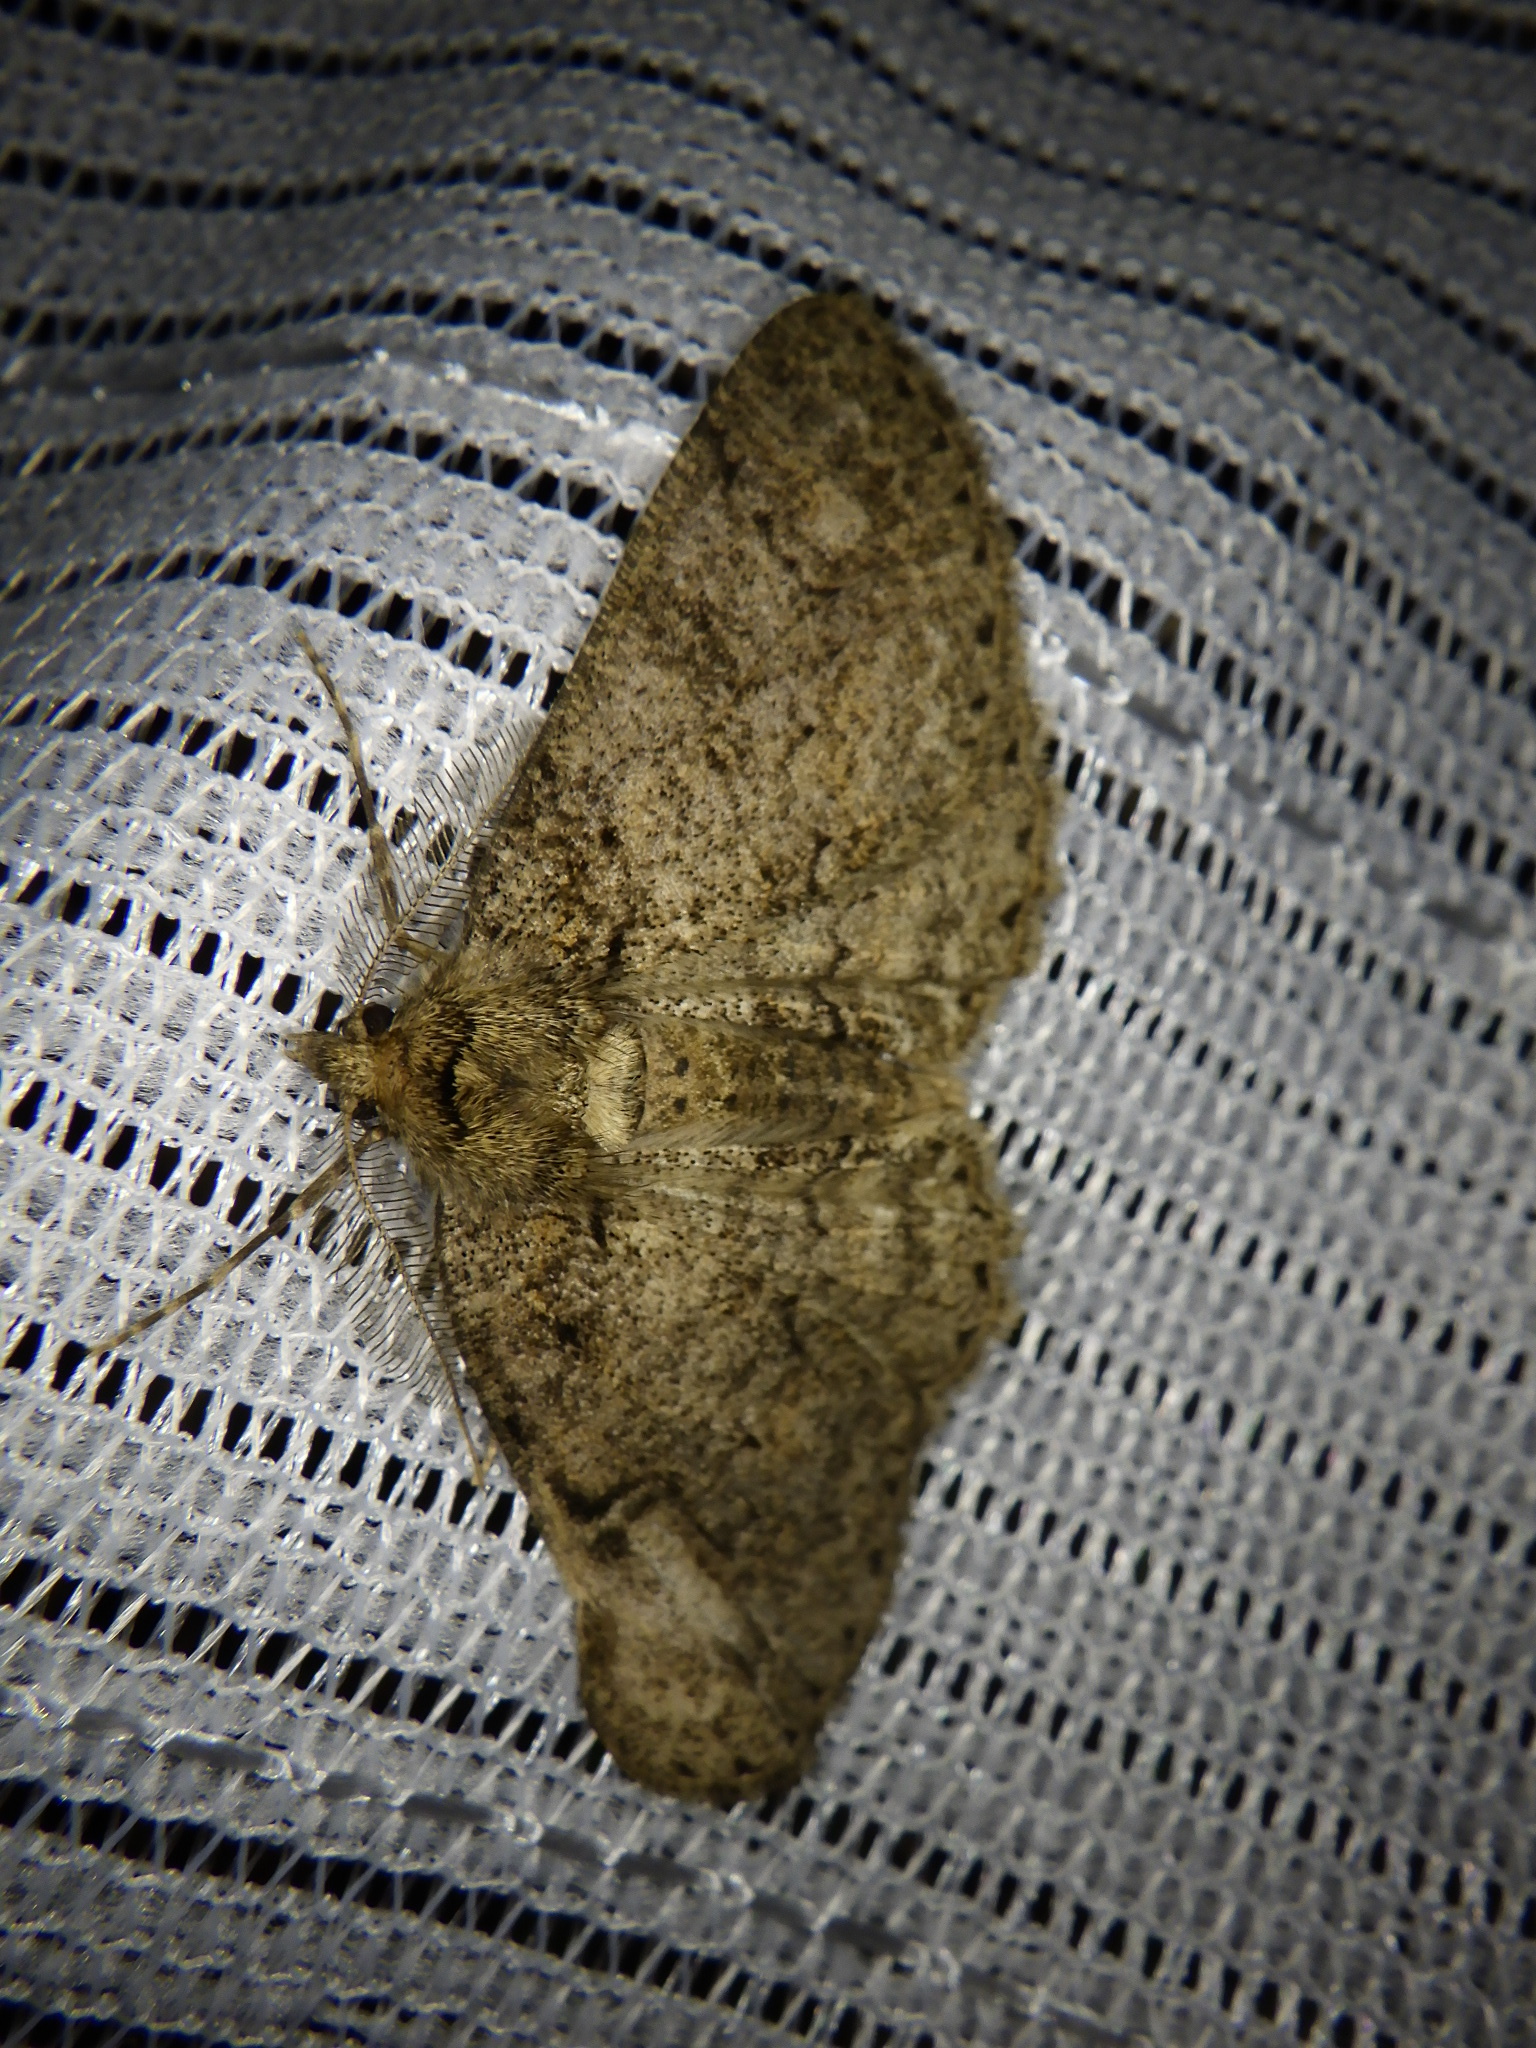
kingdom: Animalia
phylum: Arthropoda
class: Insecta
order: Lepidoptera
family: Geometridae
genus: Cleora
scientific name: Cleora leucophaea
